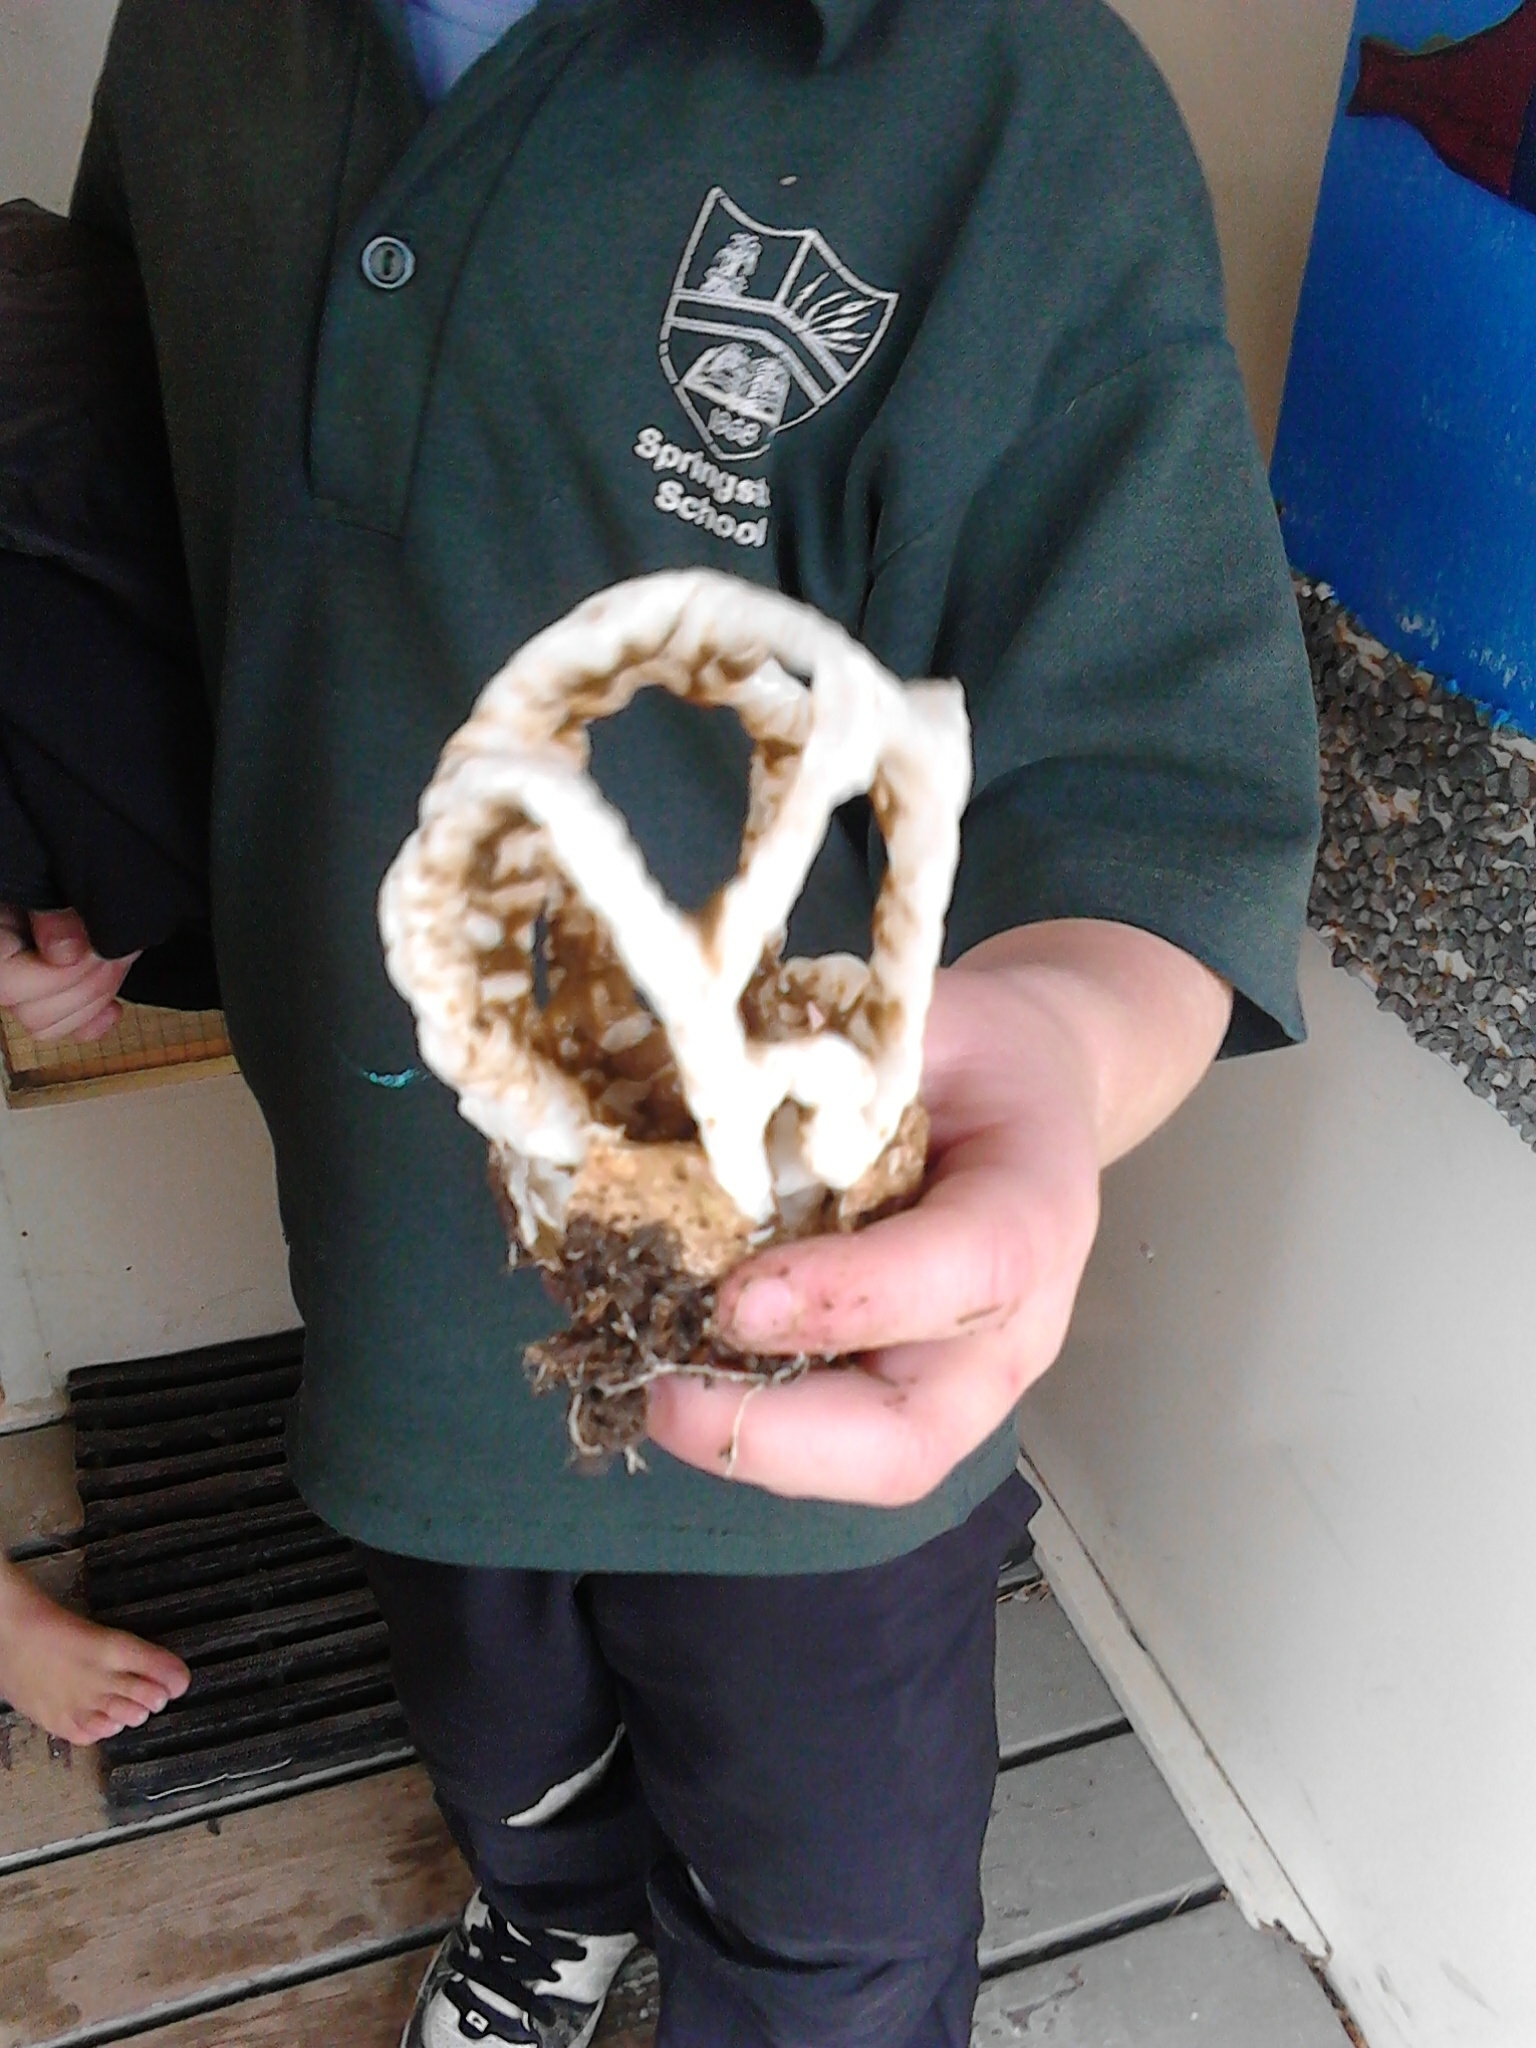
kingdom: Fungi
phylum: Basidiomycota
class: Agaricomycetes
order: Phallales
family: Phallaceae
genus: Ileodictyon
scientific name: Ileodictyon cibarium
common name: Basket fungus
